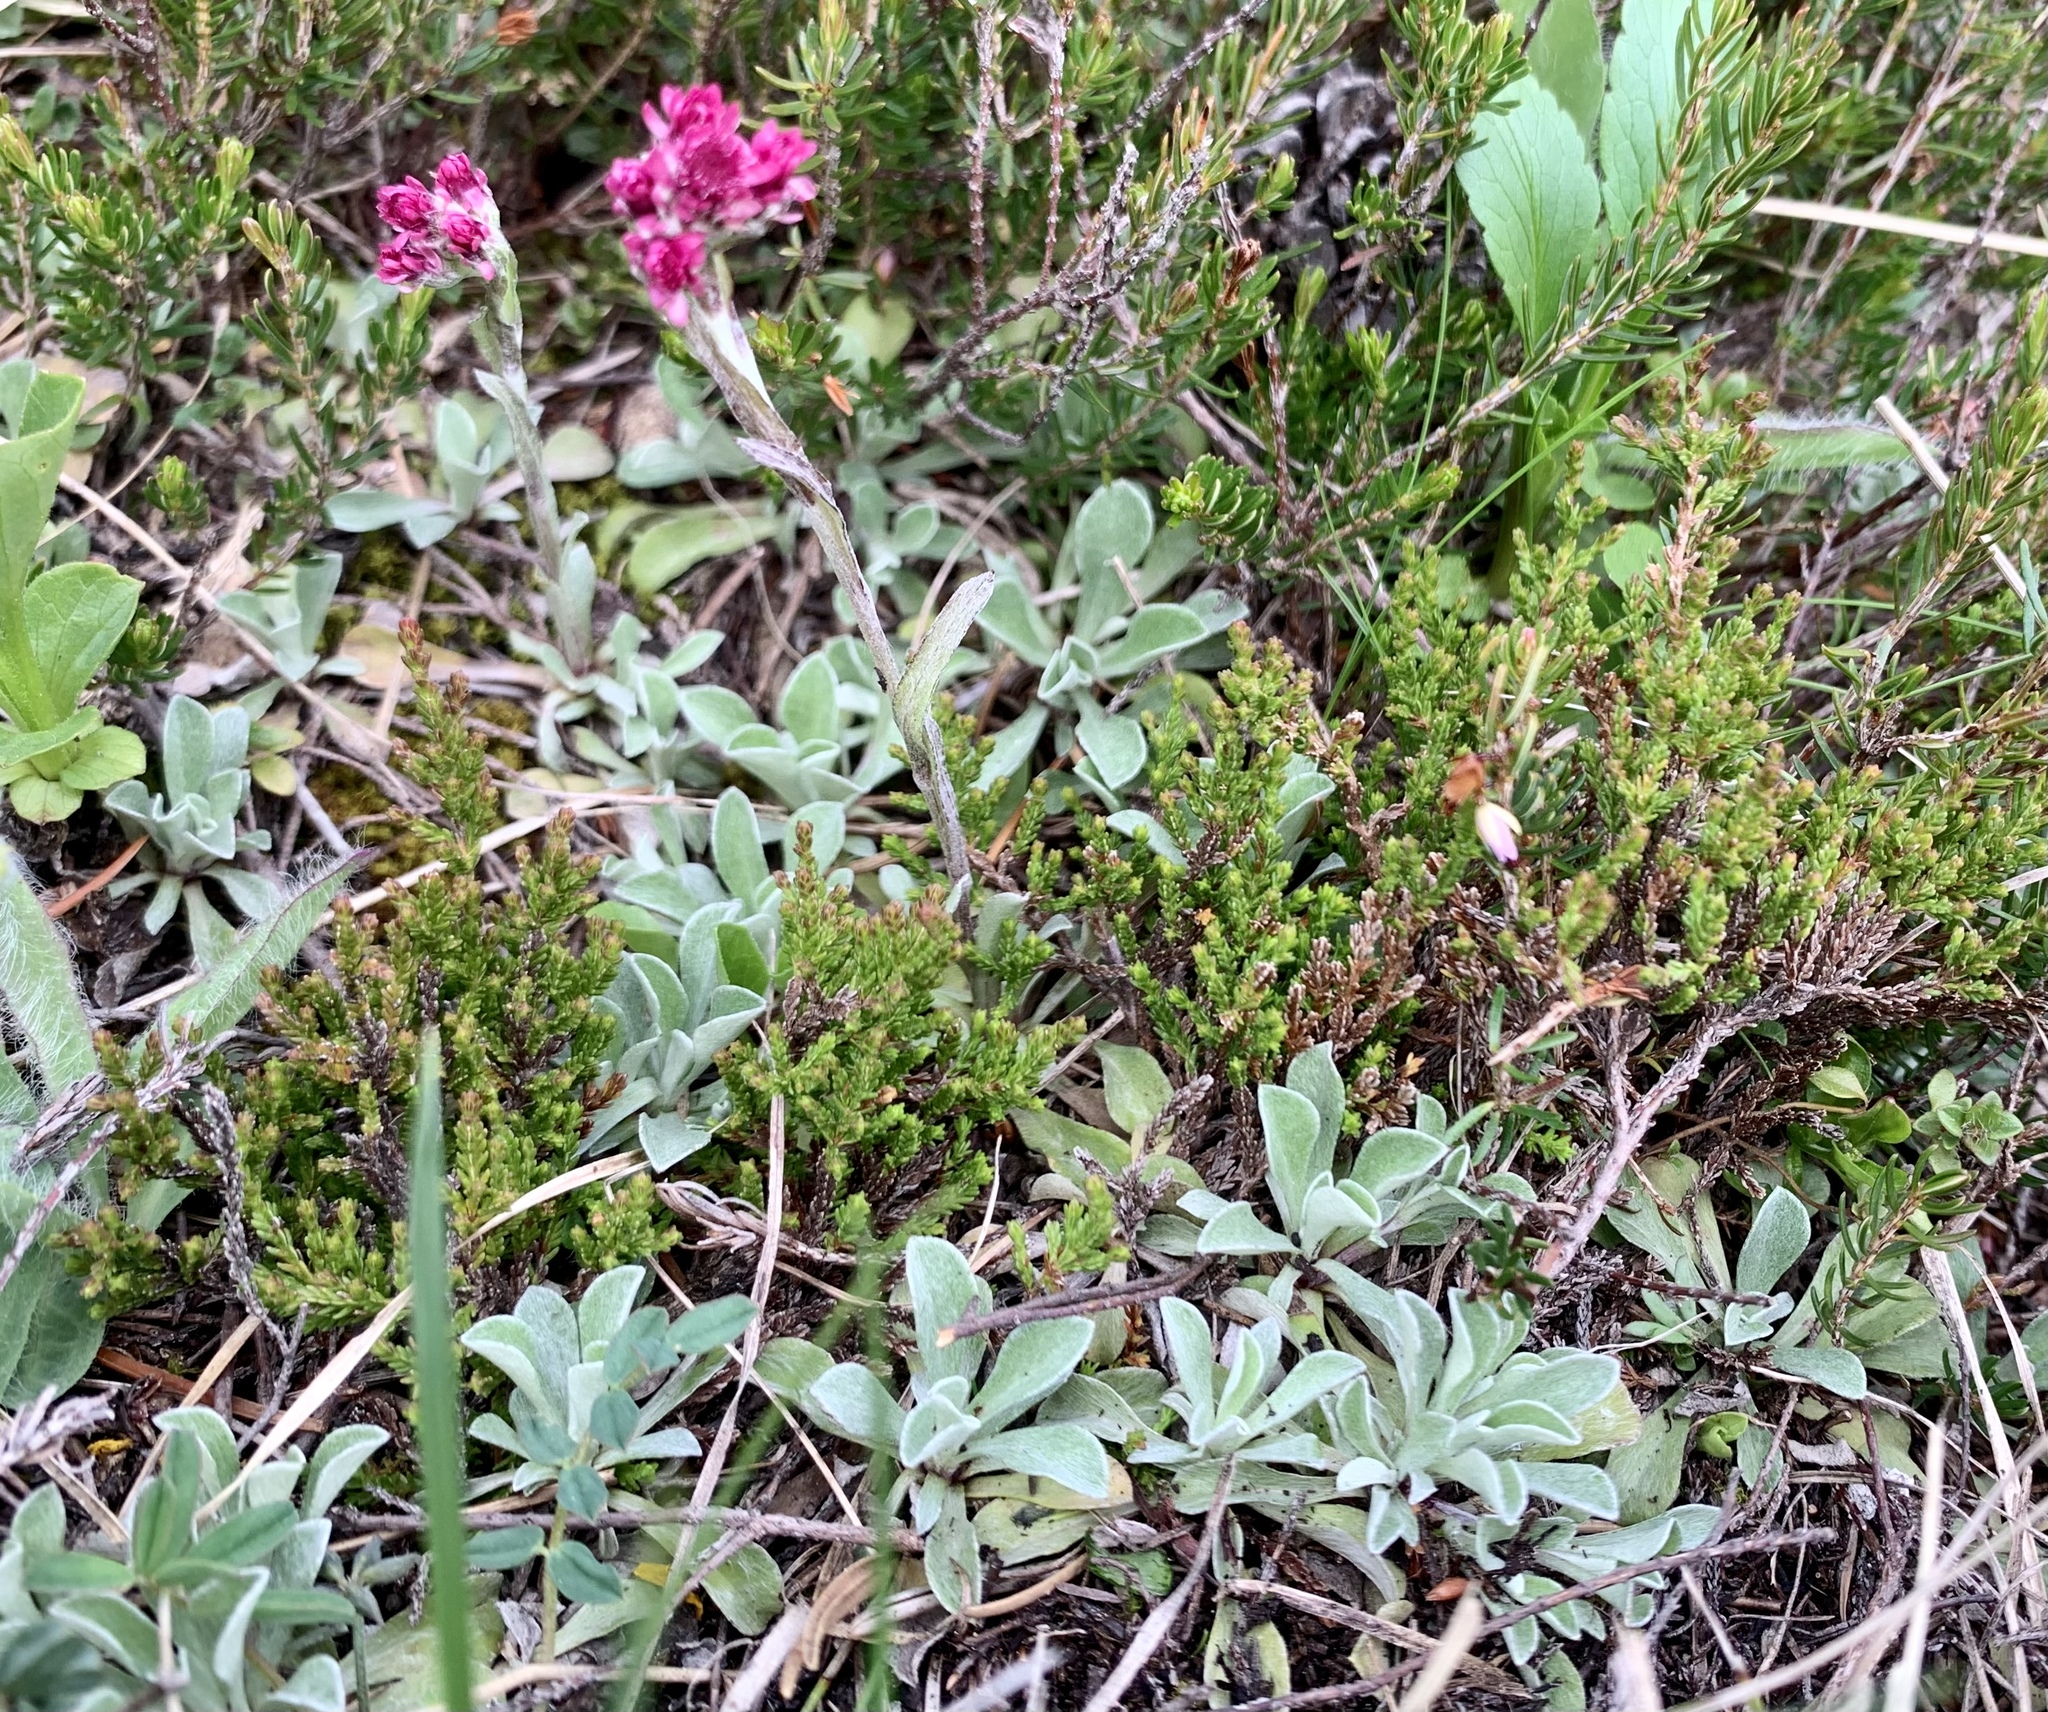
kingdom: Plantae
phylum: Tracheophyta
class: Magnoliopsida
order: Asterales
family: Asteraceae
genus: Antennaria
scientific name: Antennaria dioica
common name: Mountain everlasting
